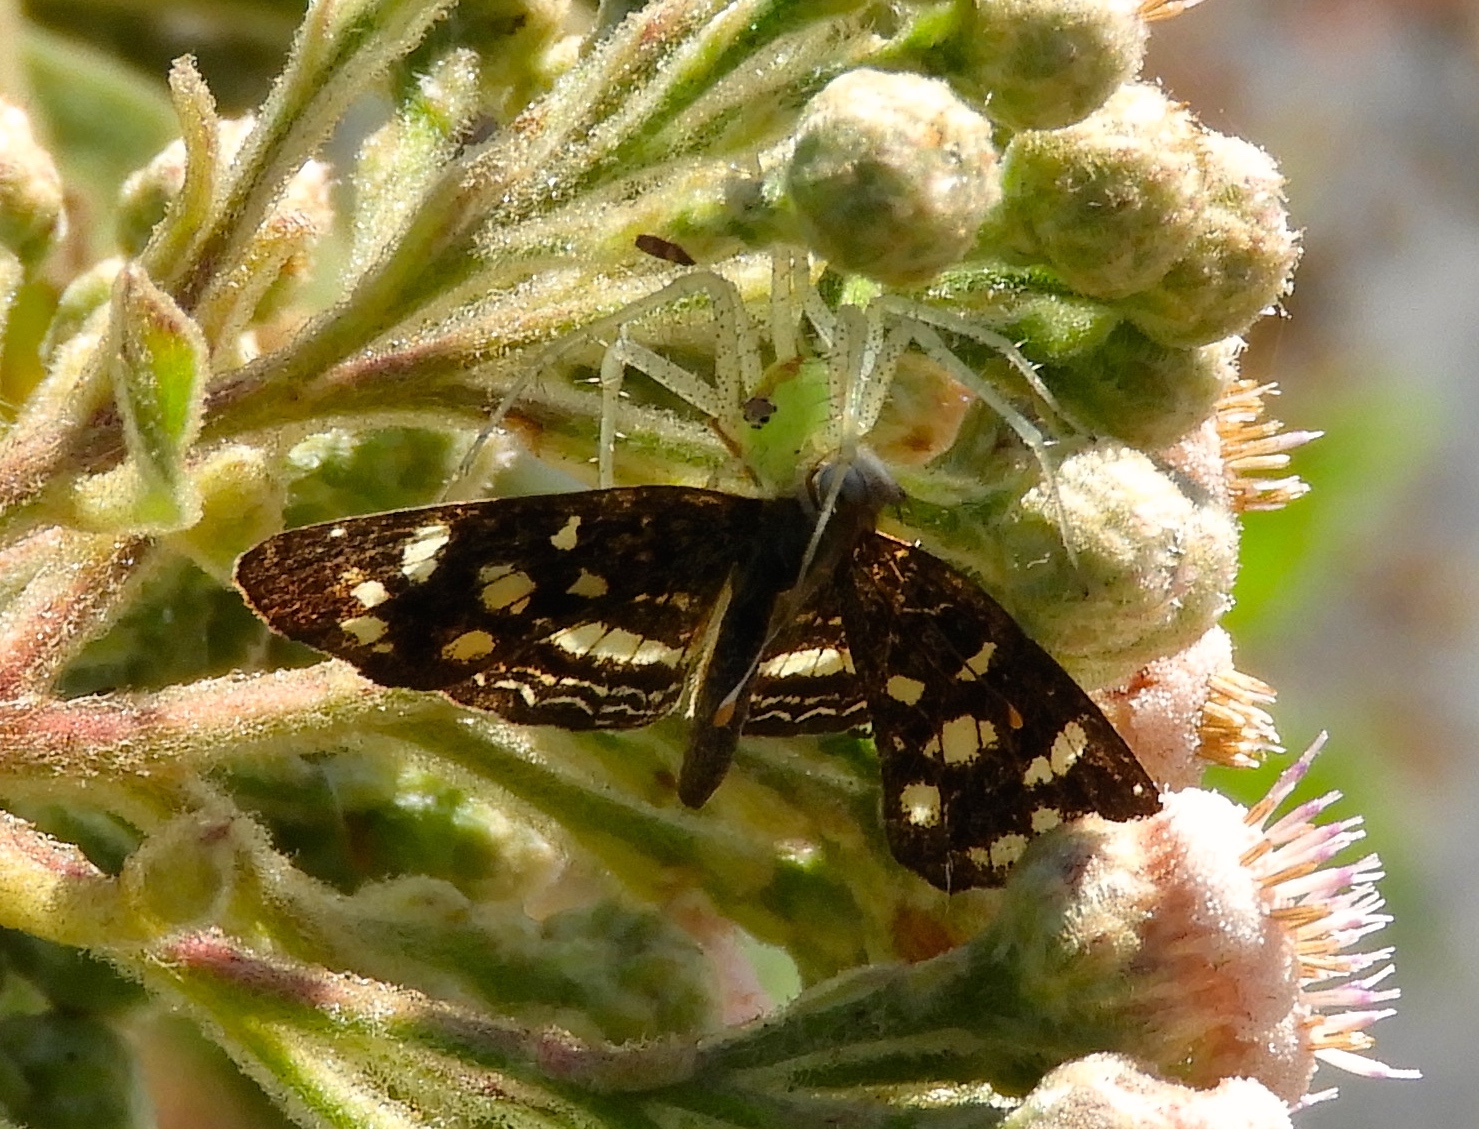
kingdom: Animalia
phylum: Arthropoda
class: Insecta
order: Lepidoptera
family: Nymphalidae
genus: Anthanassa
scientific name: Anthanassa tulcis
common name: Pale-banded crescent
